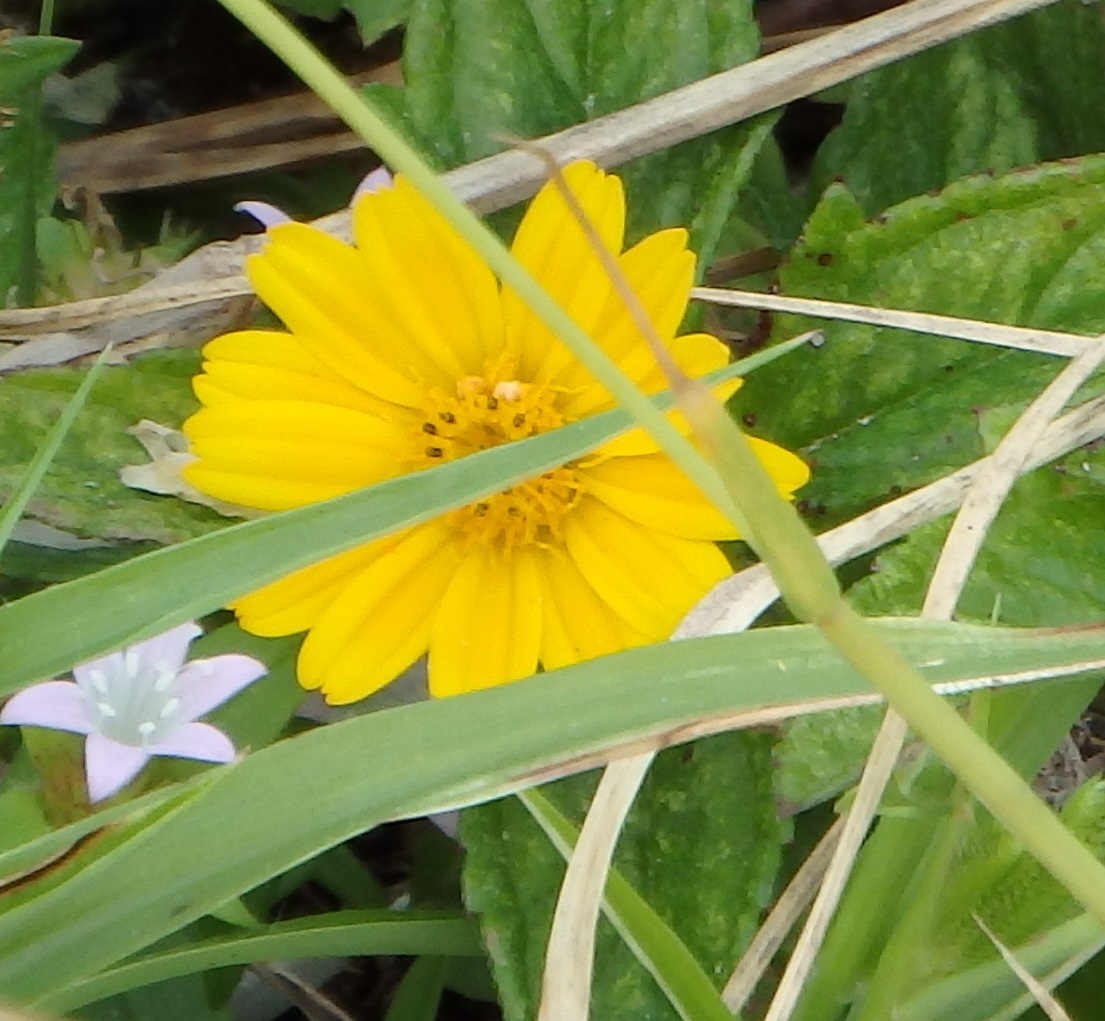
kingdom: Plantae
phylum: Tracheophyta
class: Magnoliopsida
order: Asterales
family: Asteraceae
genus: Sphagneticola
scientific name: Sphagneticola trilobata
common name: Bay biscayne creeping-oxeye
